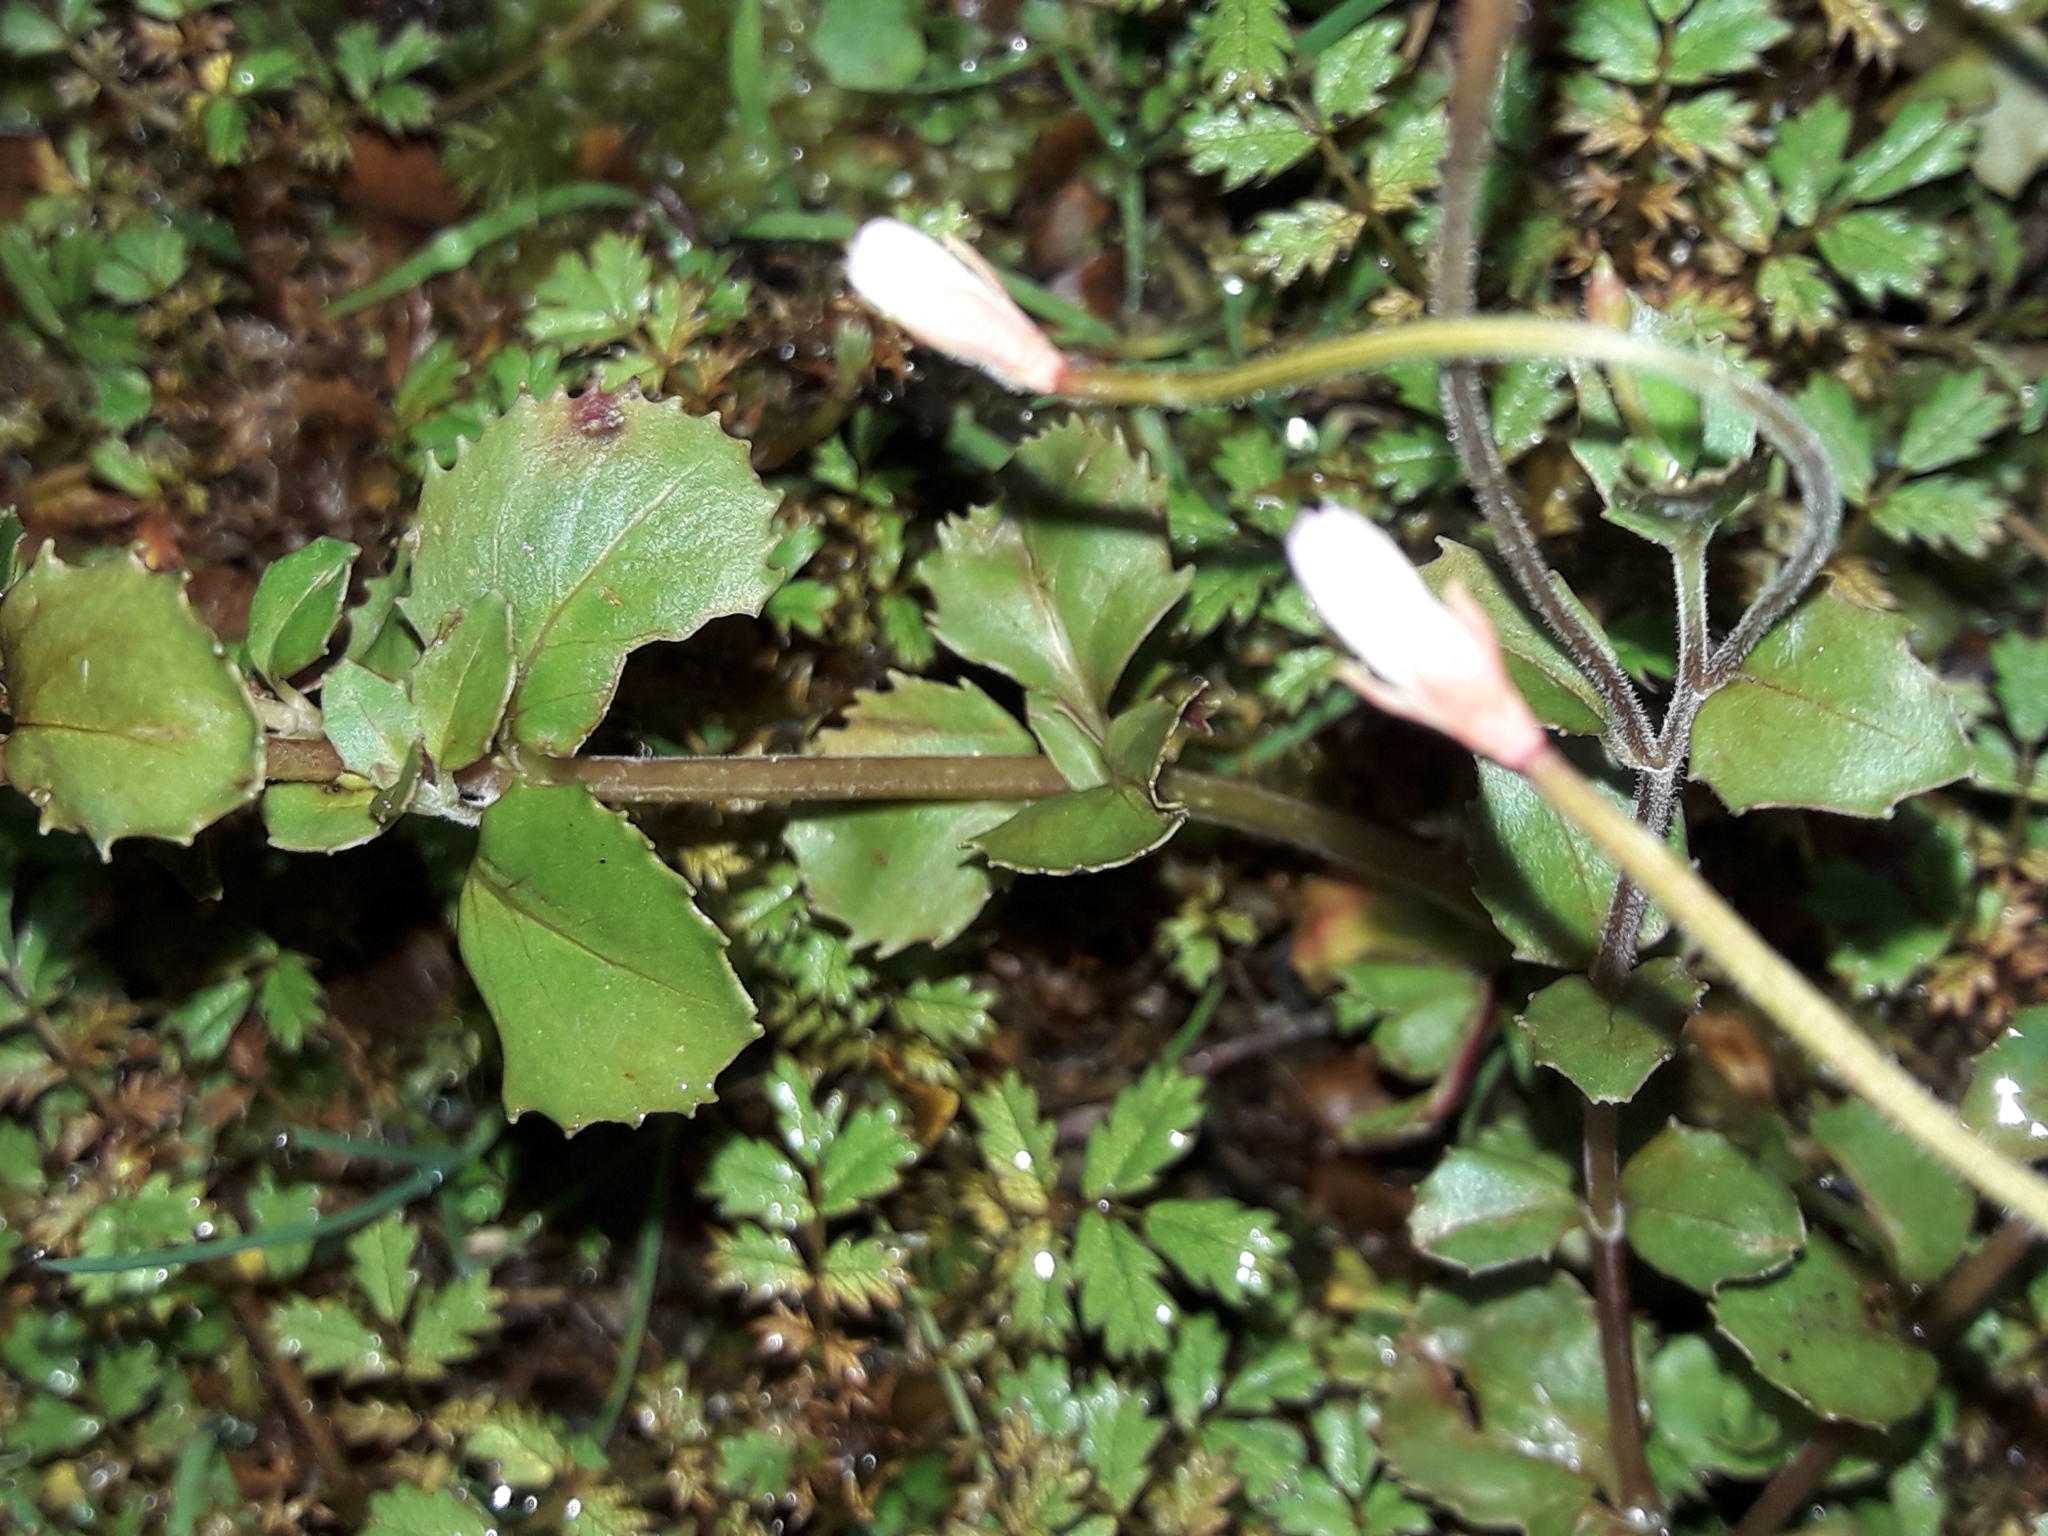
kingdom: Plantae
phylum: Tracheophyta
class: Magnoliopsida
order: Myrtales
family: Onagraceae
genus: Epilobium
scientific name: Epilobium rotundifolium
